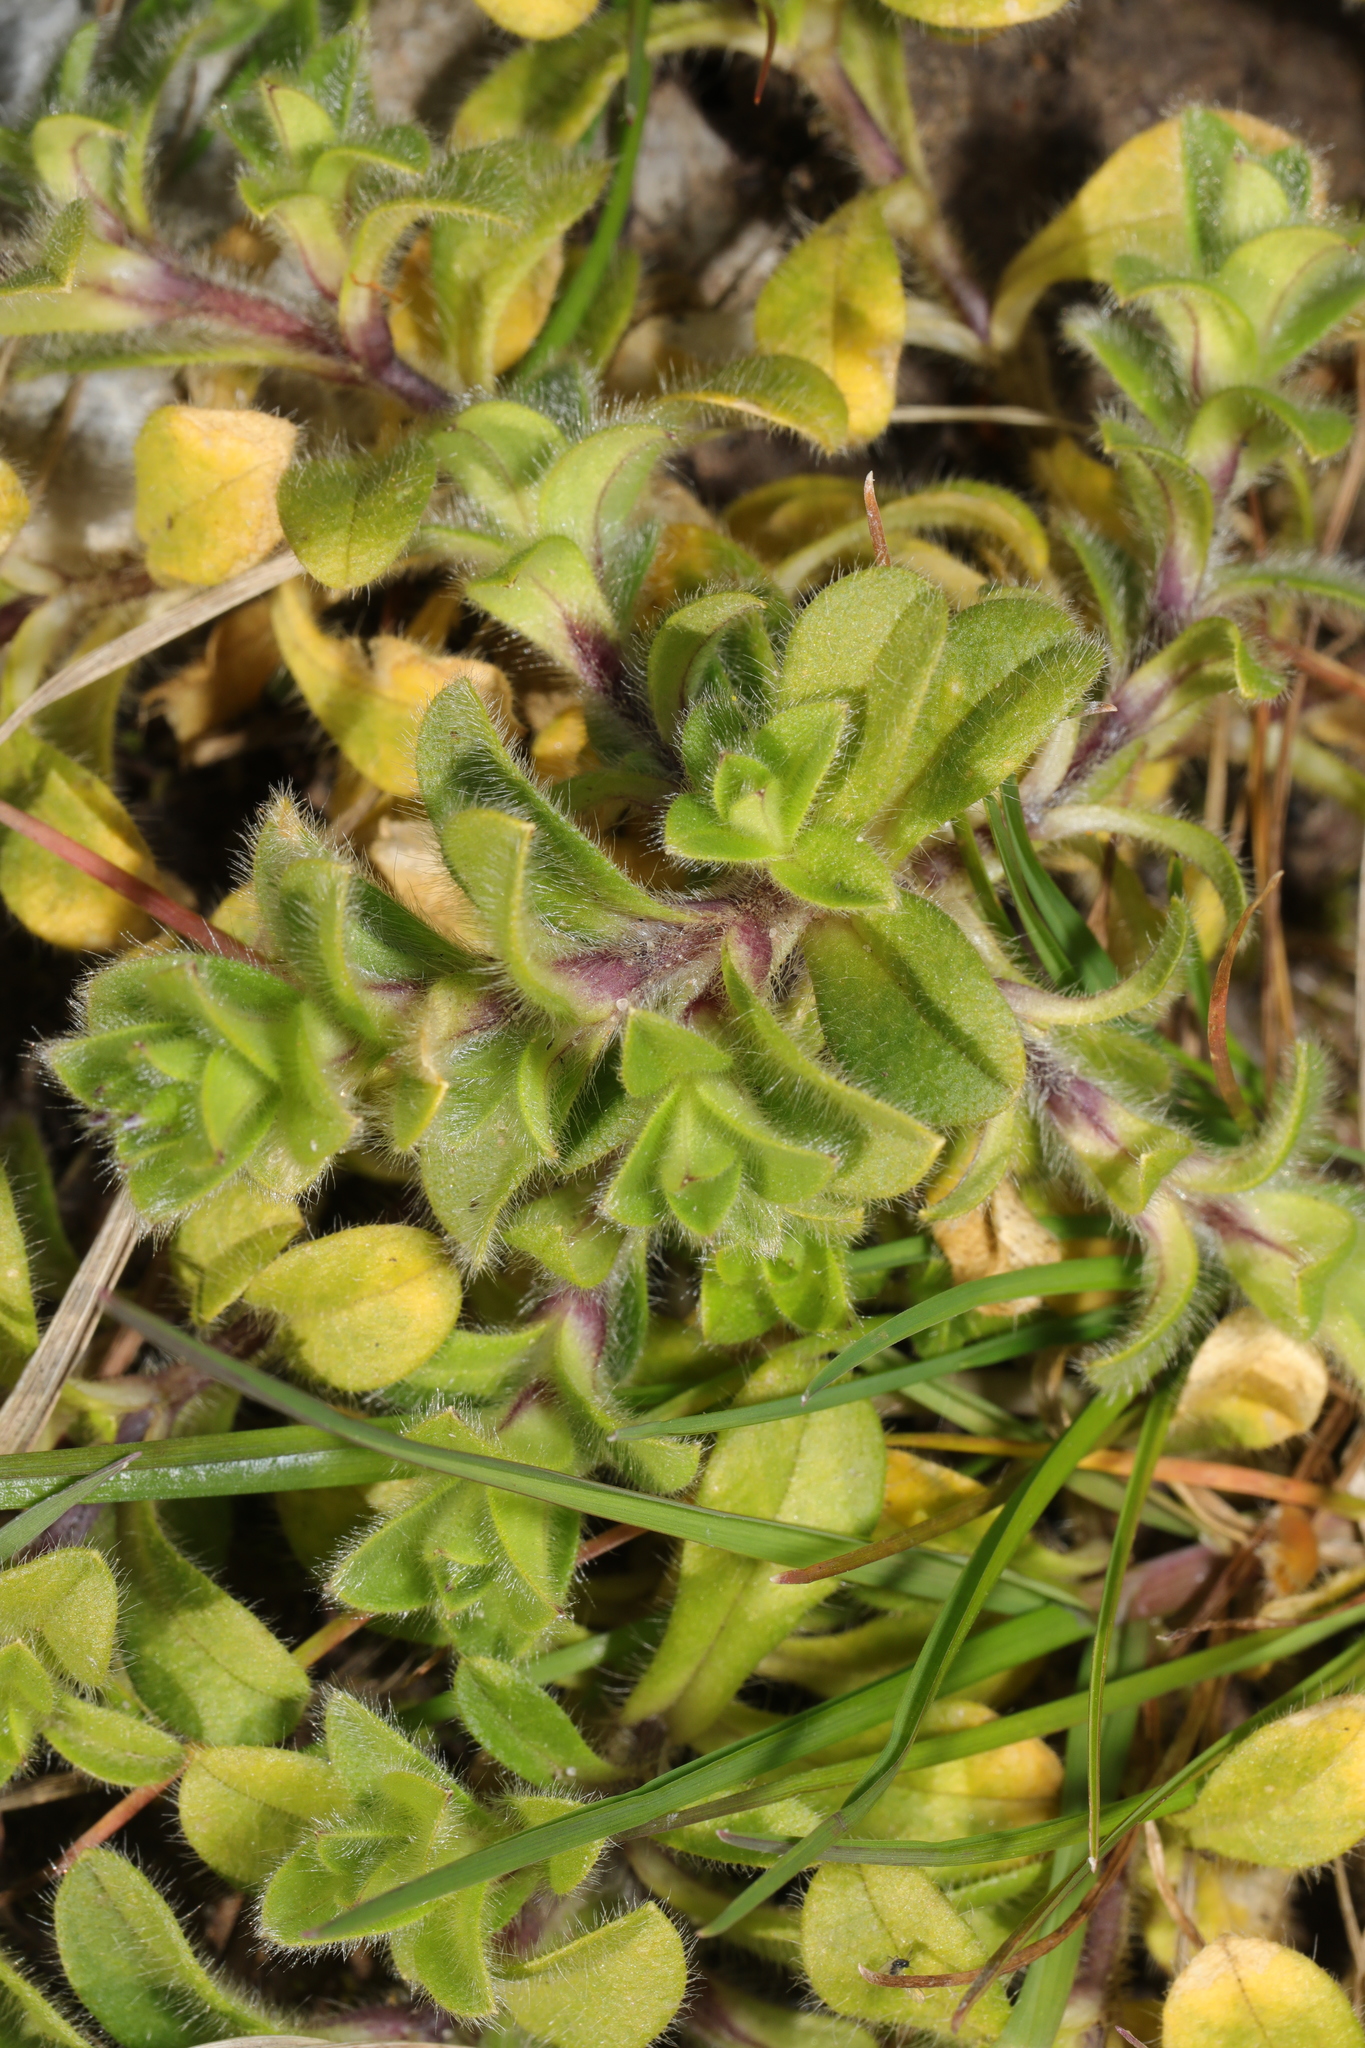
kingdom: Plantae
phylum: Tracheophyta
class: Magnoliopsida
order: Caryophyllales
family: Caryophyllaceae
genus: Cerastium
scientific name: Cerastium glomeratum
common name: Sticky chickweed
